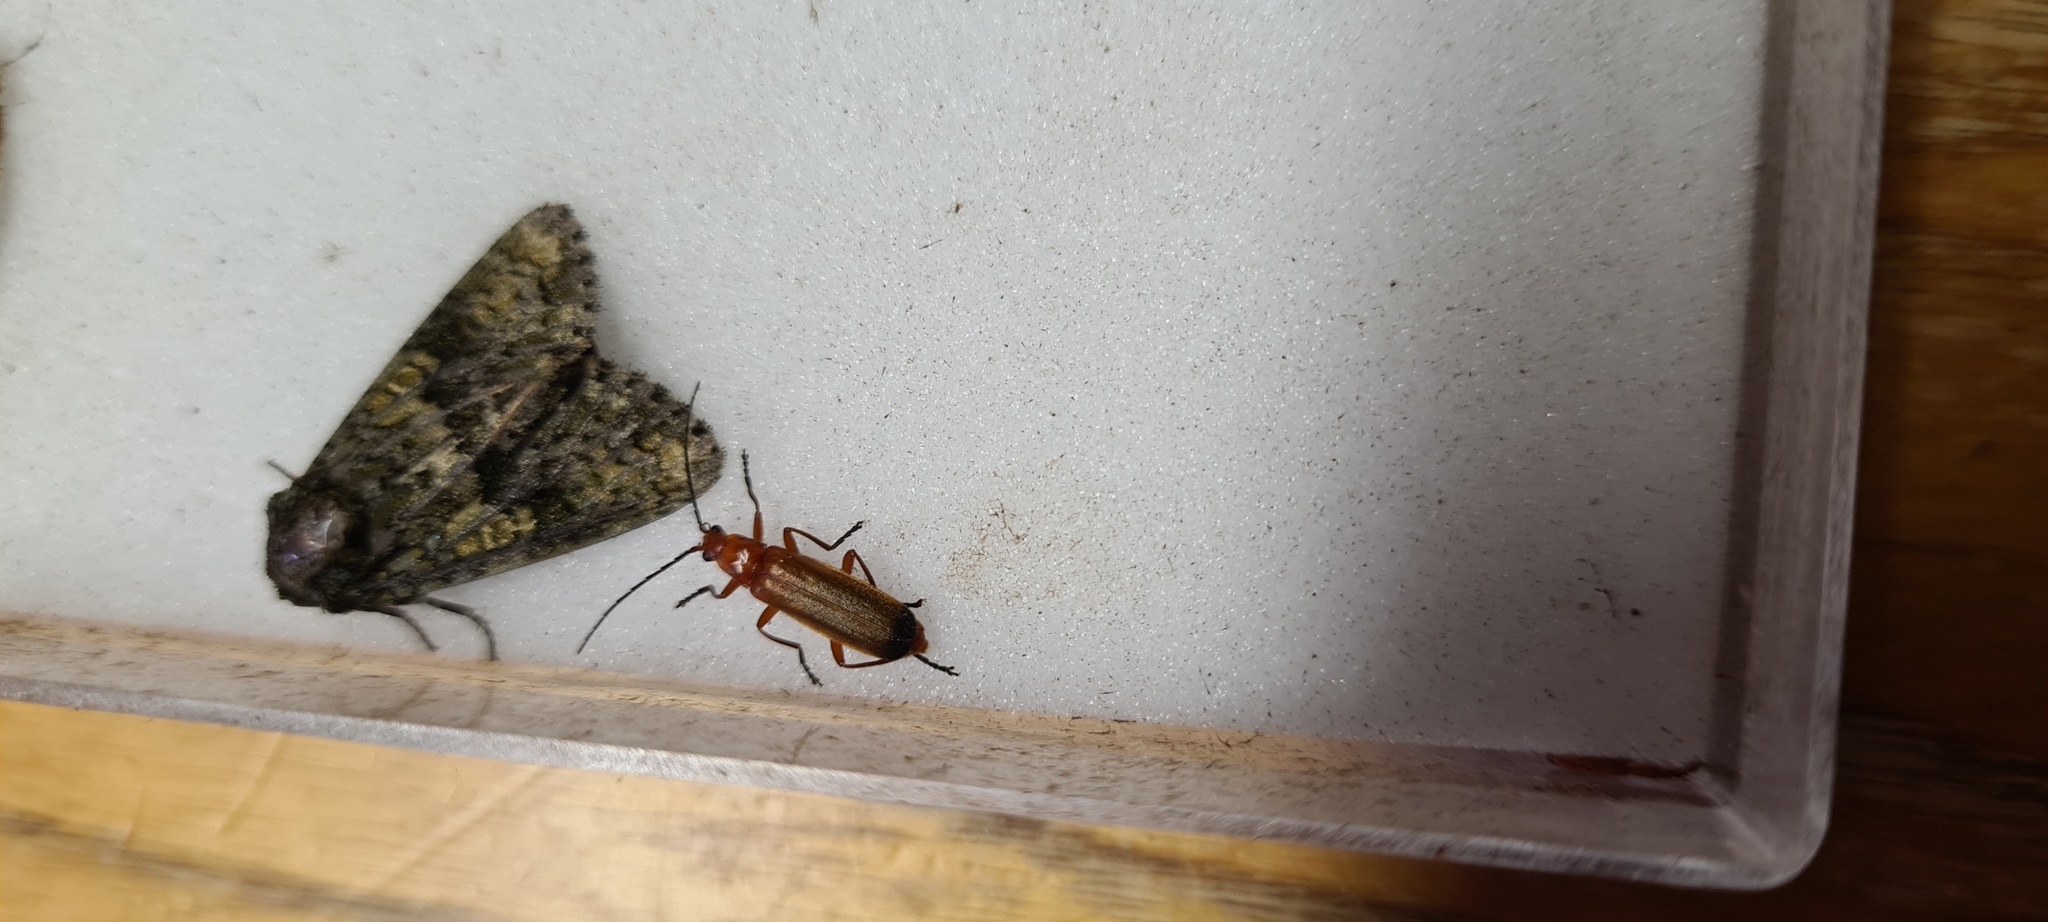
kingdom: Animalia
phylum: Arthropoda
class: Insecta
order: Coleoptera
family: Cantharidae
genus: Rhagonycha
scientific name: Rhagonycha fulva
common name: Common red soldier beetle
